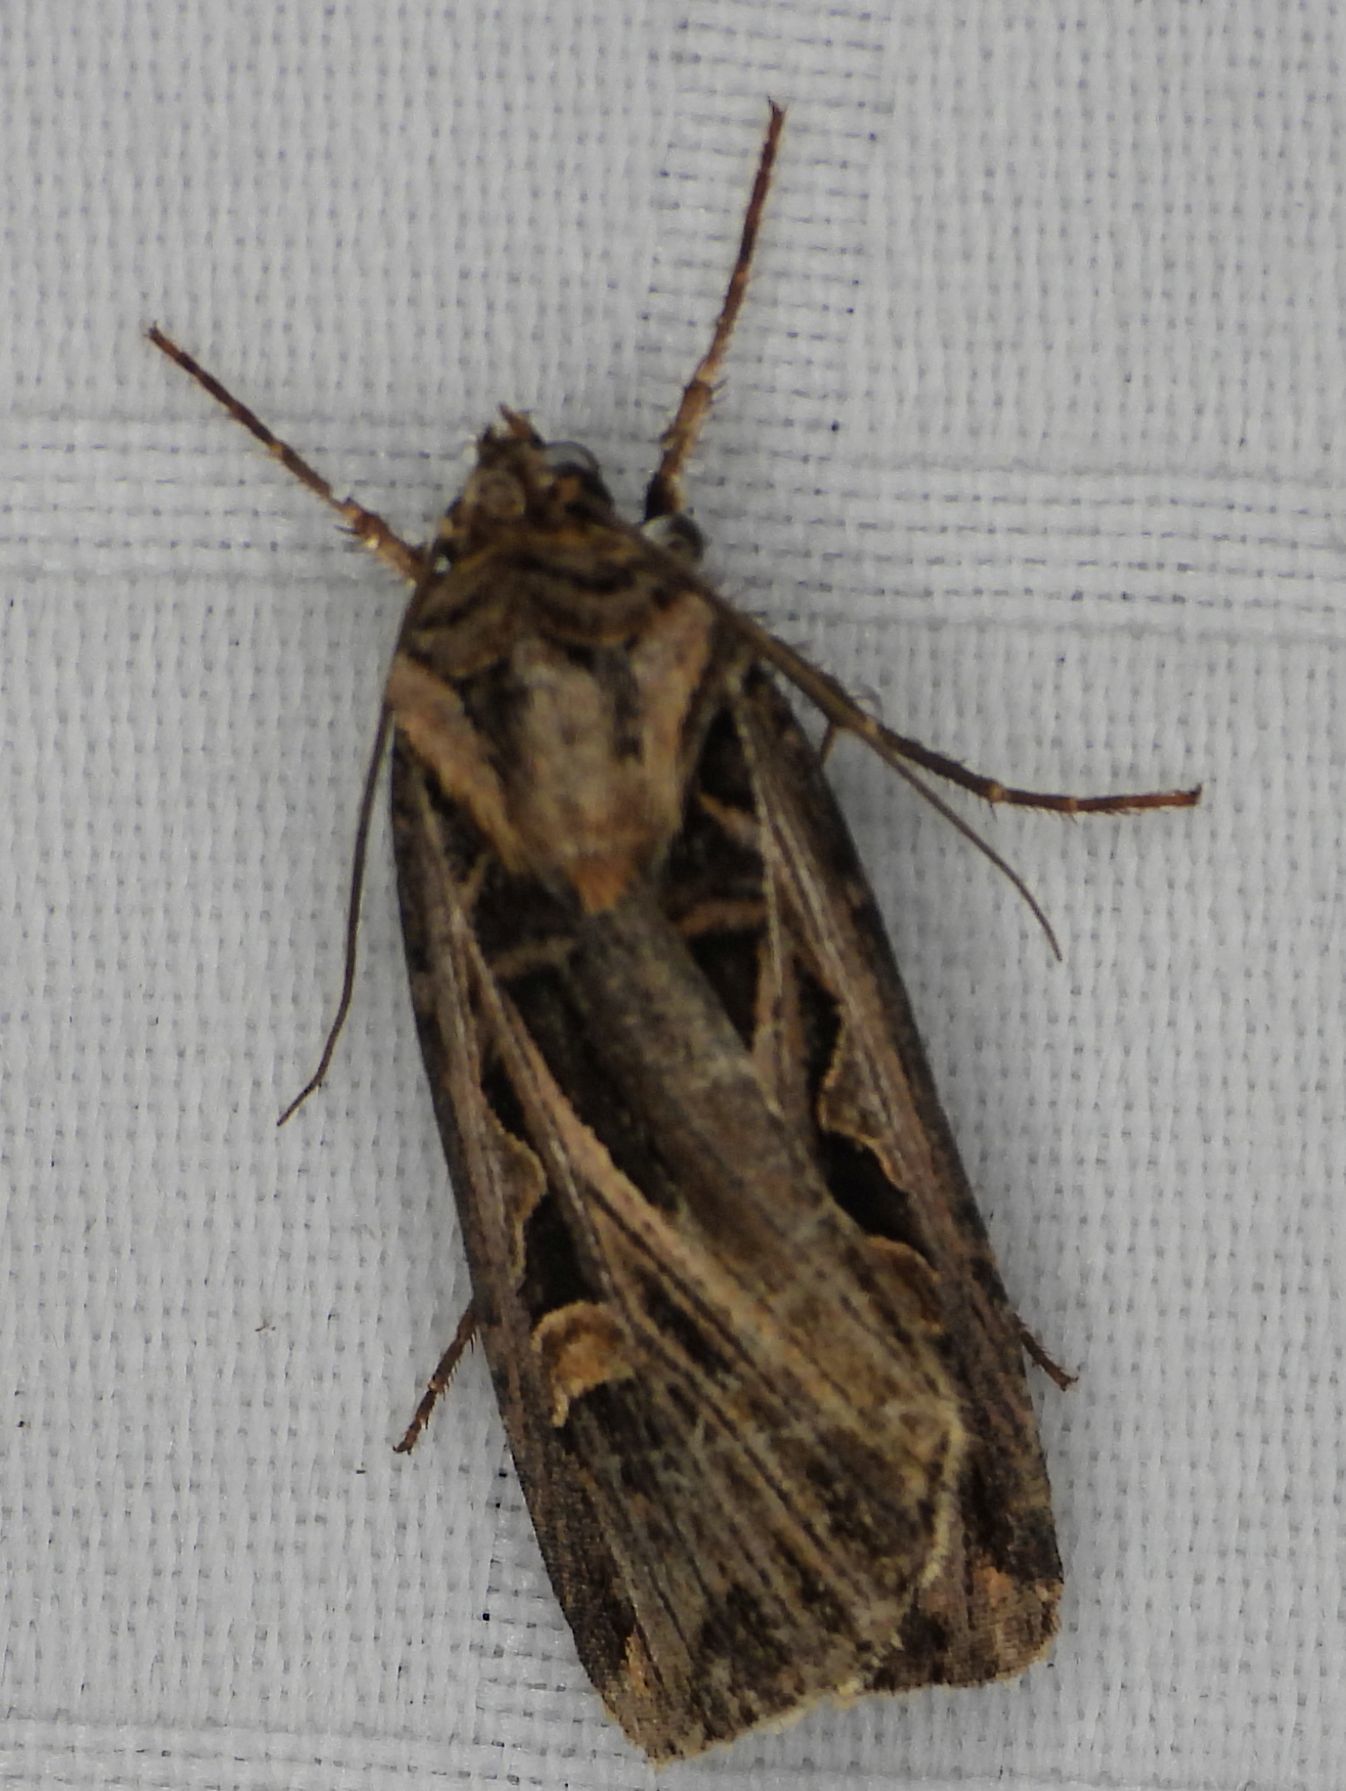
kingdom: Animalia
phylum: Arthropoda
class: Insecta
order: Lepidoptera
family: Noctuidae
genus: Feltia
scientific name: Feltia jaculifera
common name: Dingy cutworm moth
